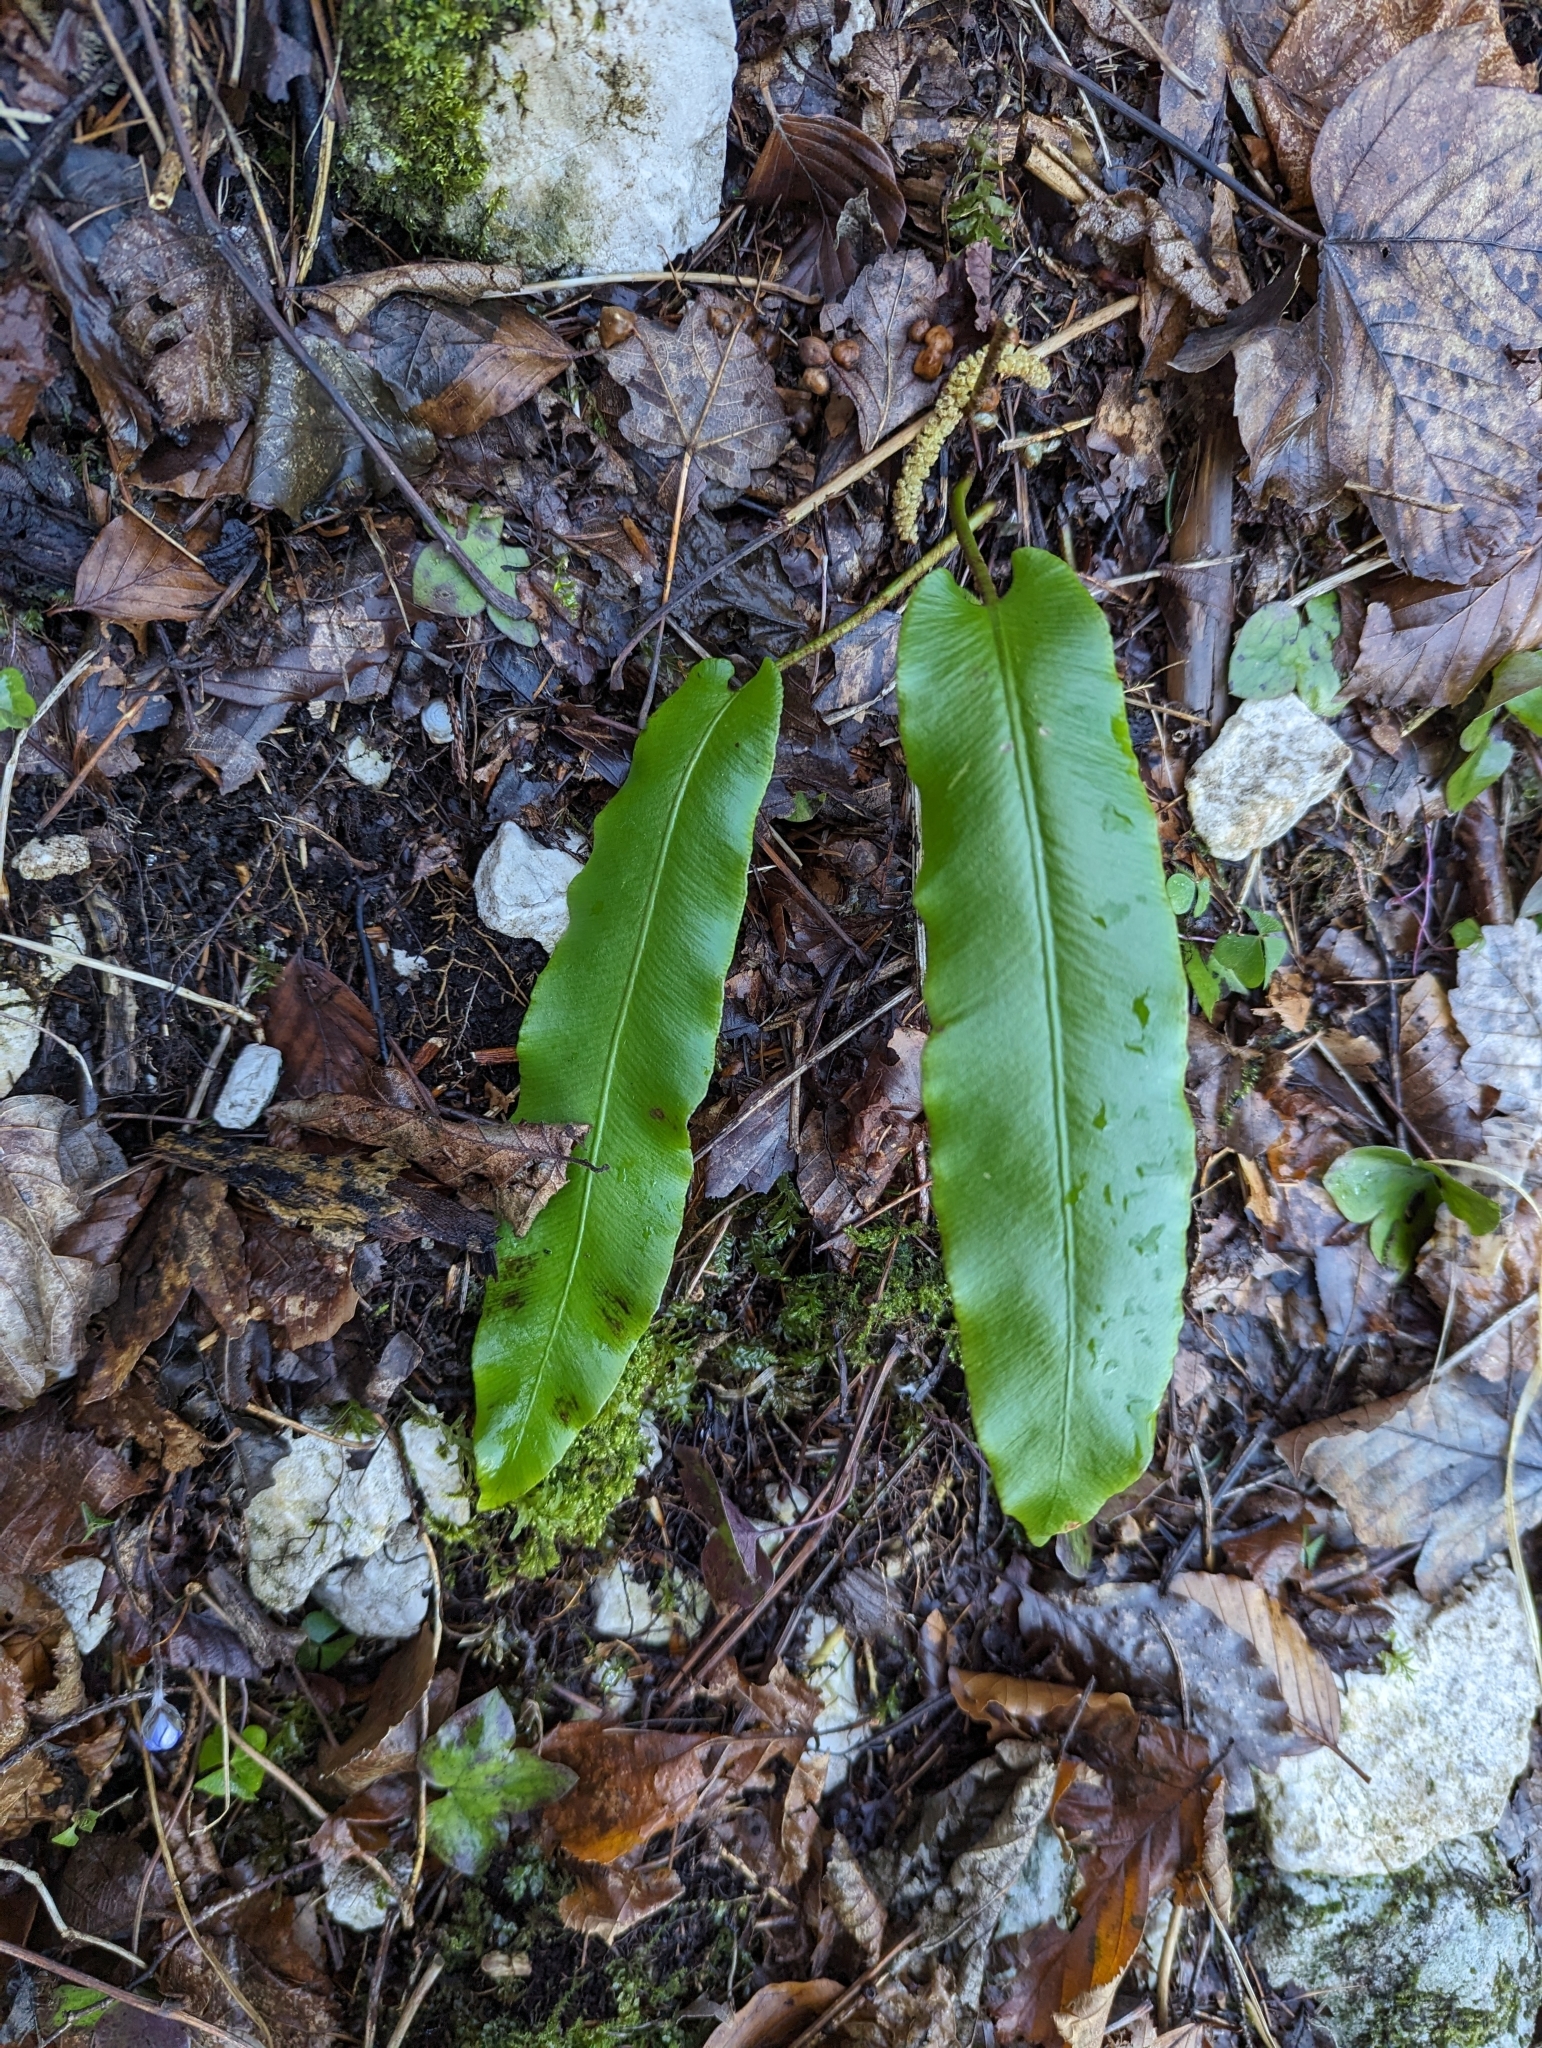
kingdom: Plantae
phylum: Tracheophyta
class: Polypodiopsida
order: Polypodiales
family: Aspleniaceae
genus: Asplenium
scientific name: Asplenium scolopendrium
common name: Hart's-tongue fern
